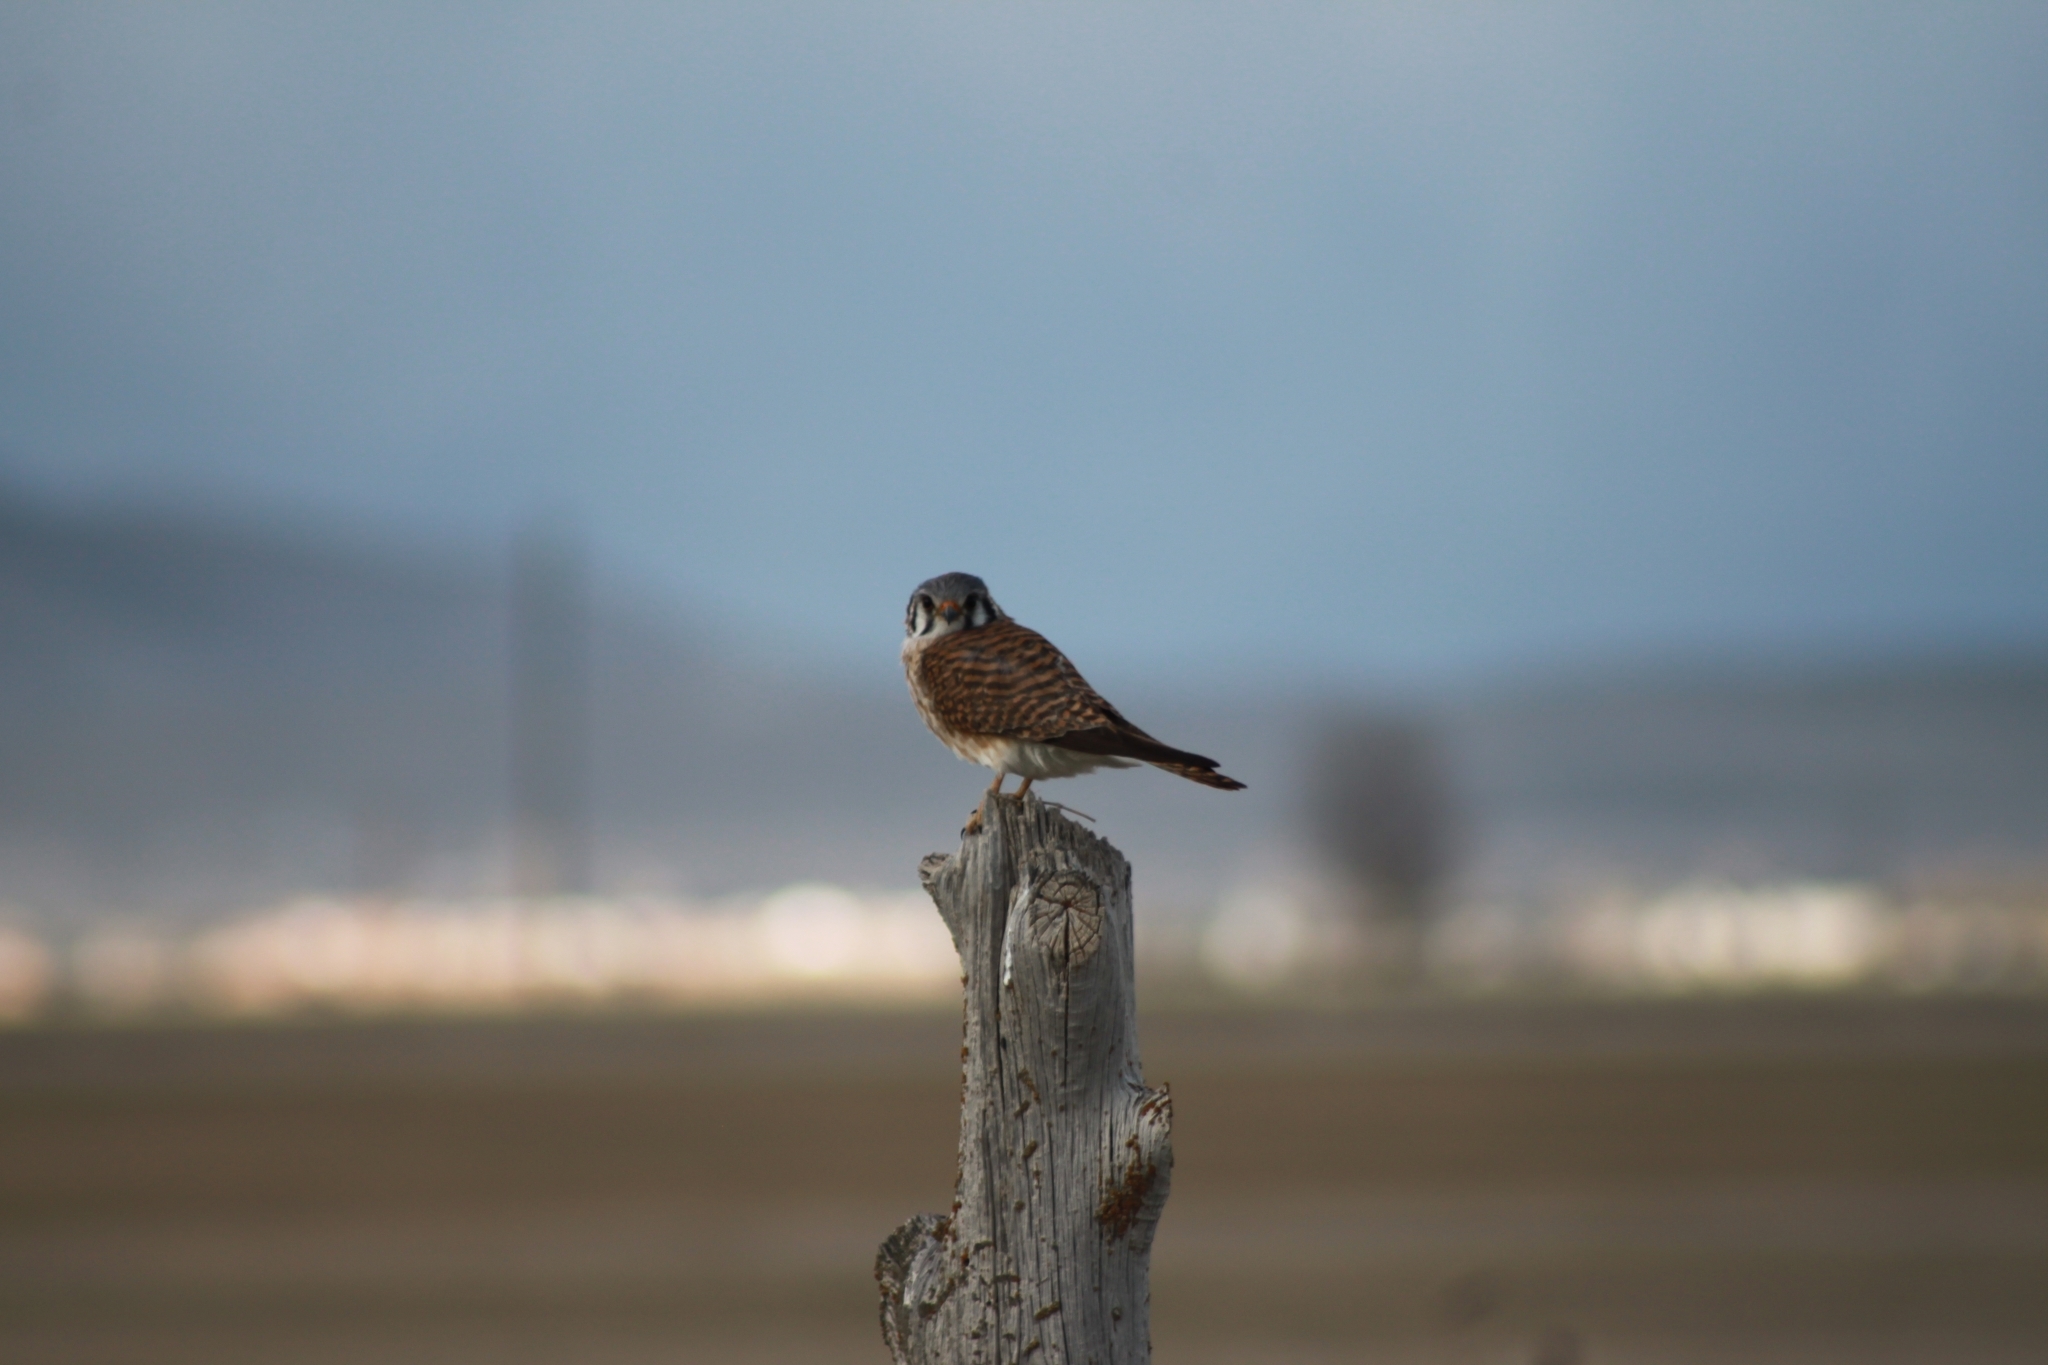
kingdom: Animalia
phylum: Chordata
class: Aves
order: Falconiformes
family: Falconidae
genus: Falco
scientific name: Falco sparverius
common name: American kestrel
